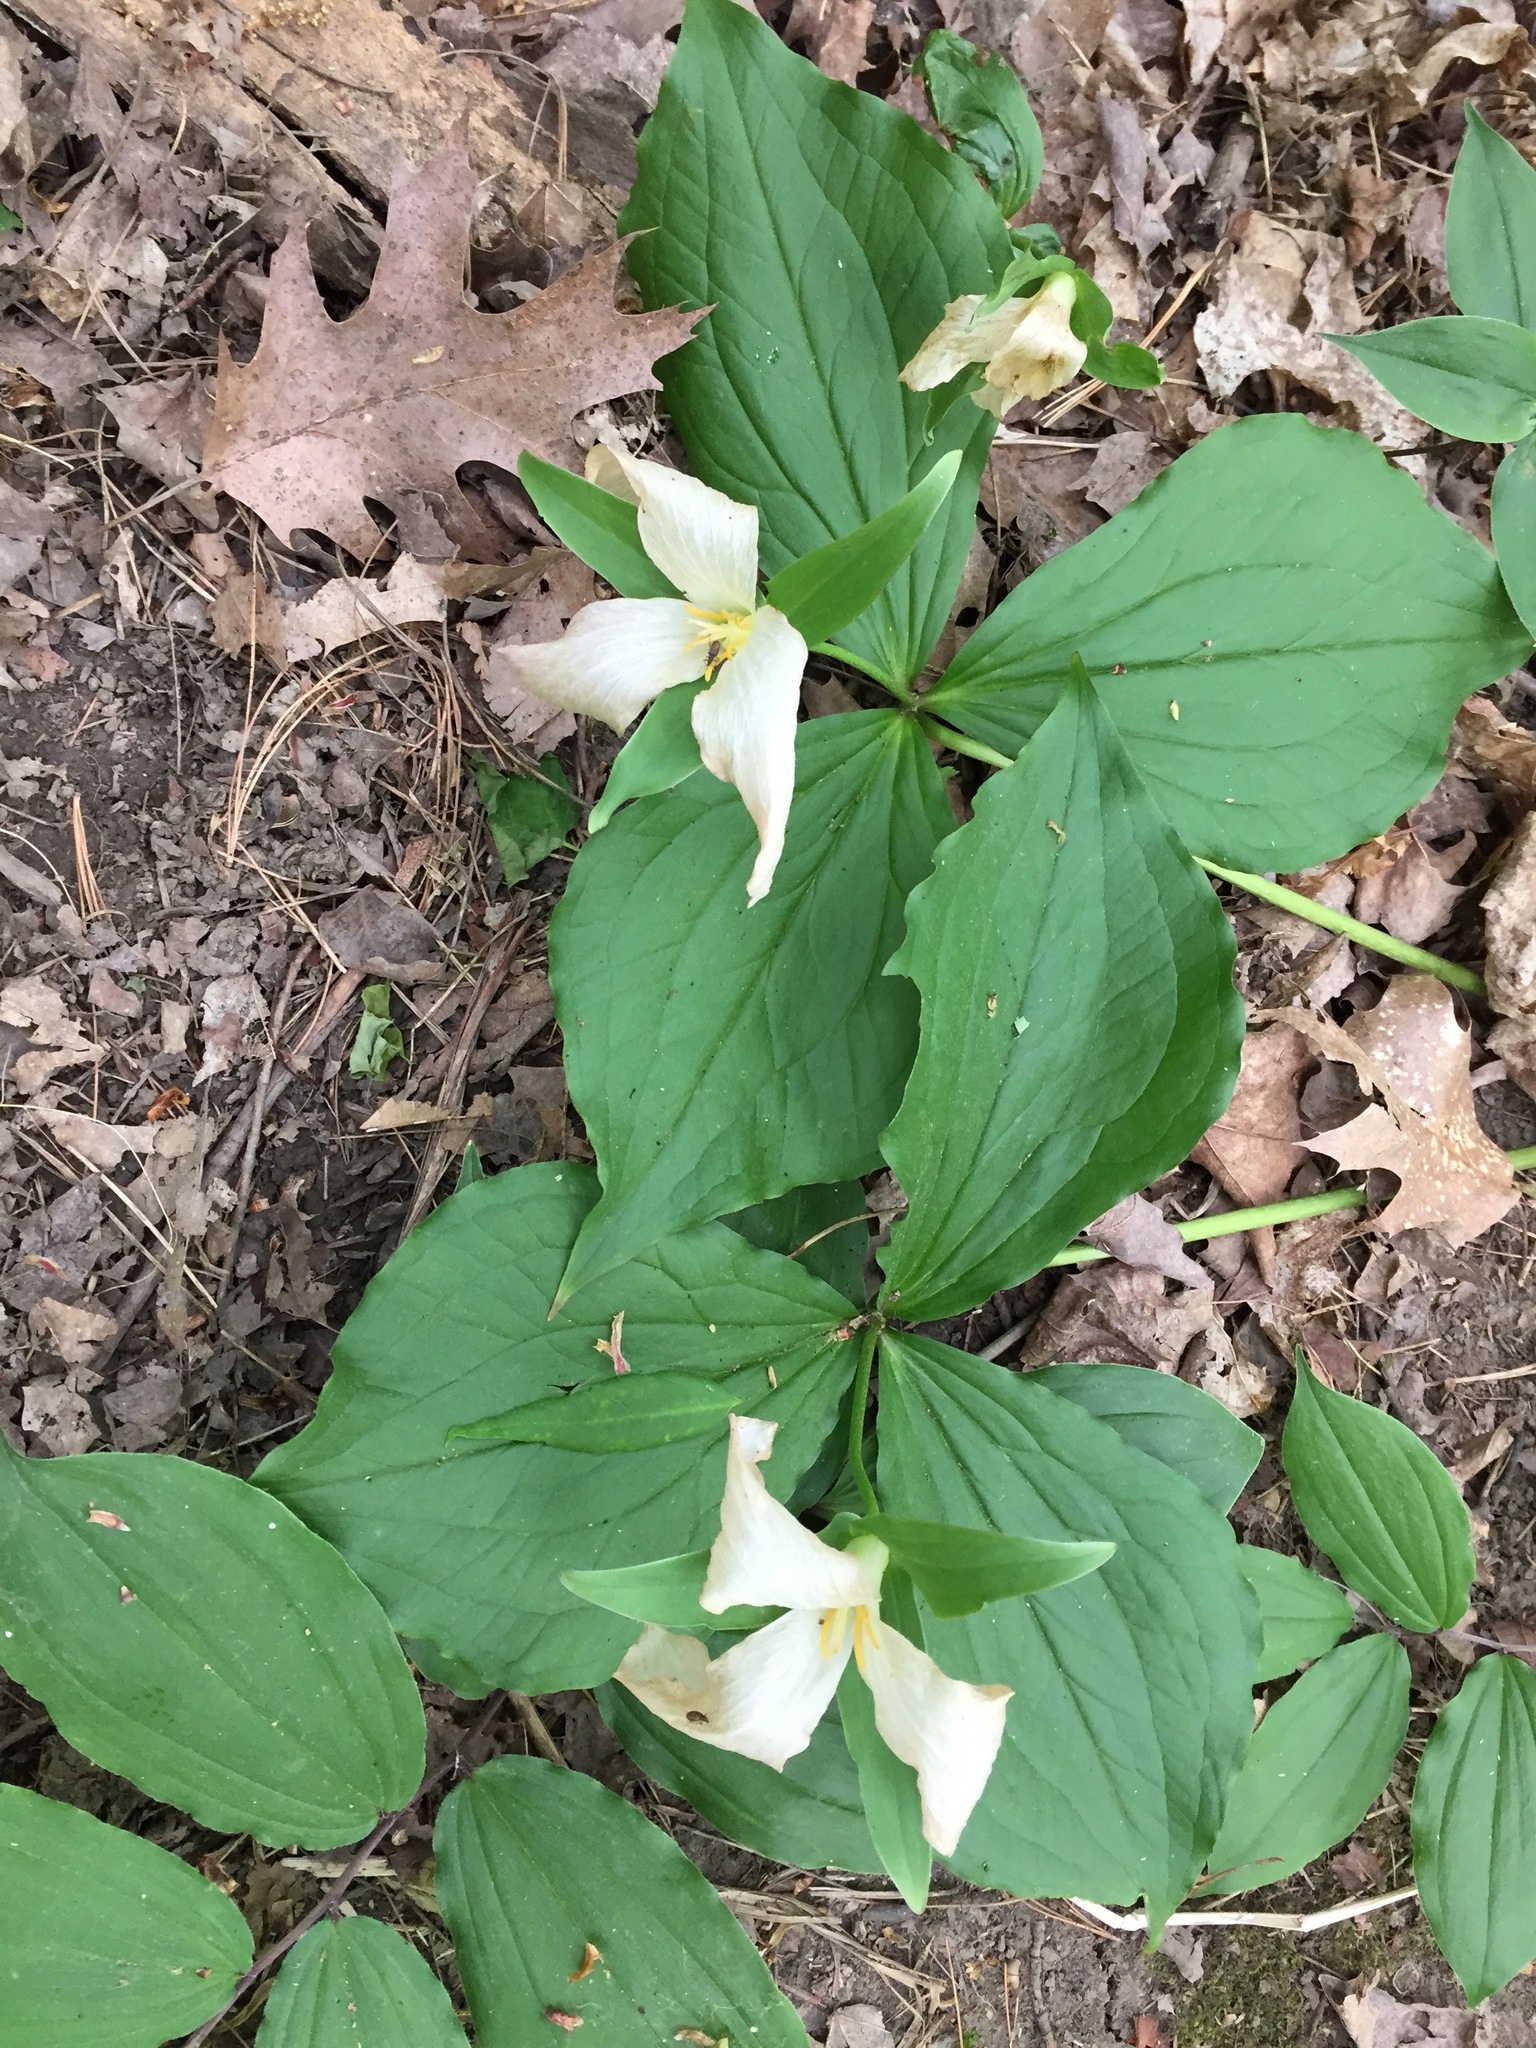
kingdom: Plantae
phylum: Tracheophyta
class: Liliopsida
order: Liliales
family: Melanthiaceae
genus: Trillium
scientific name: Trillium grandiflorum
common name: Great white trillium
